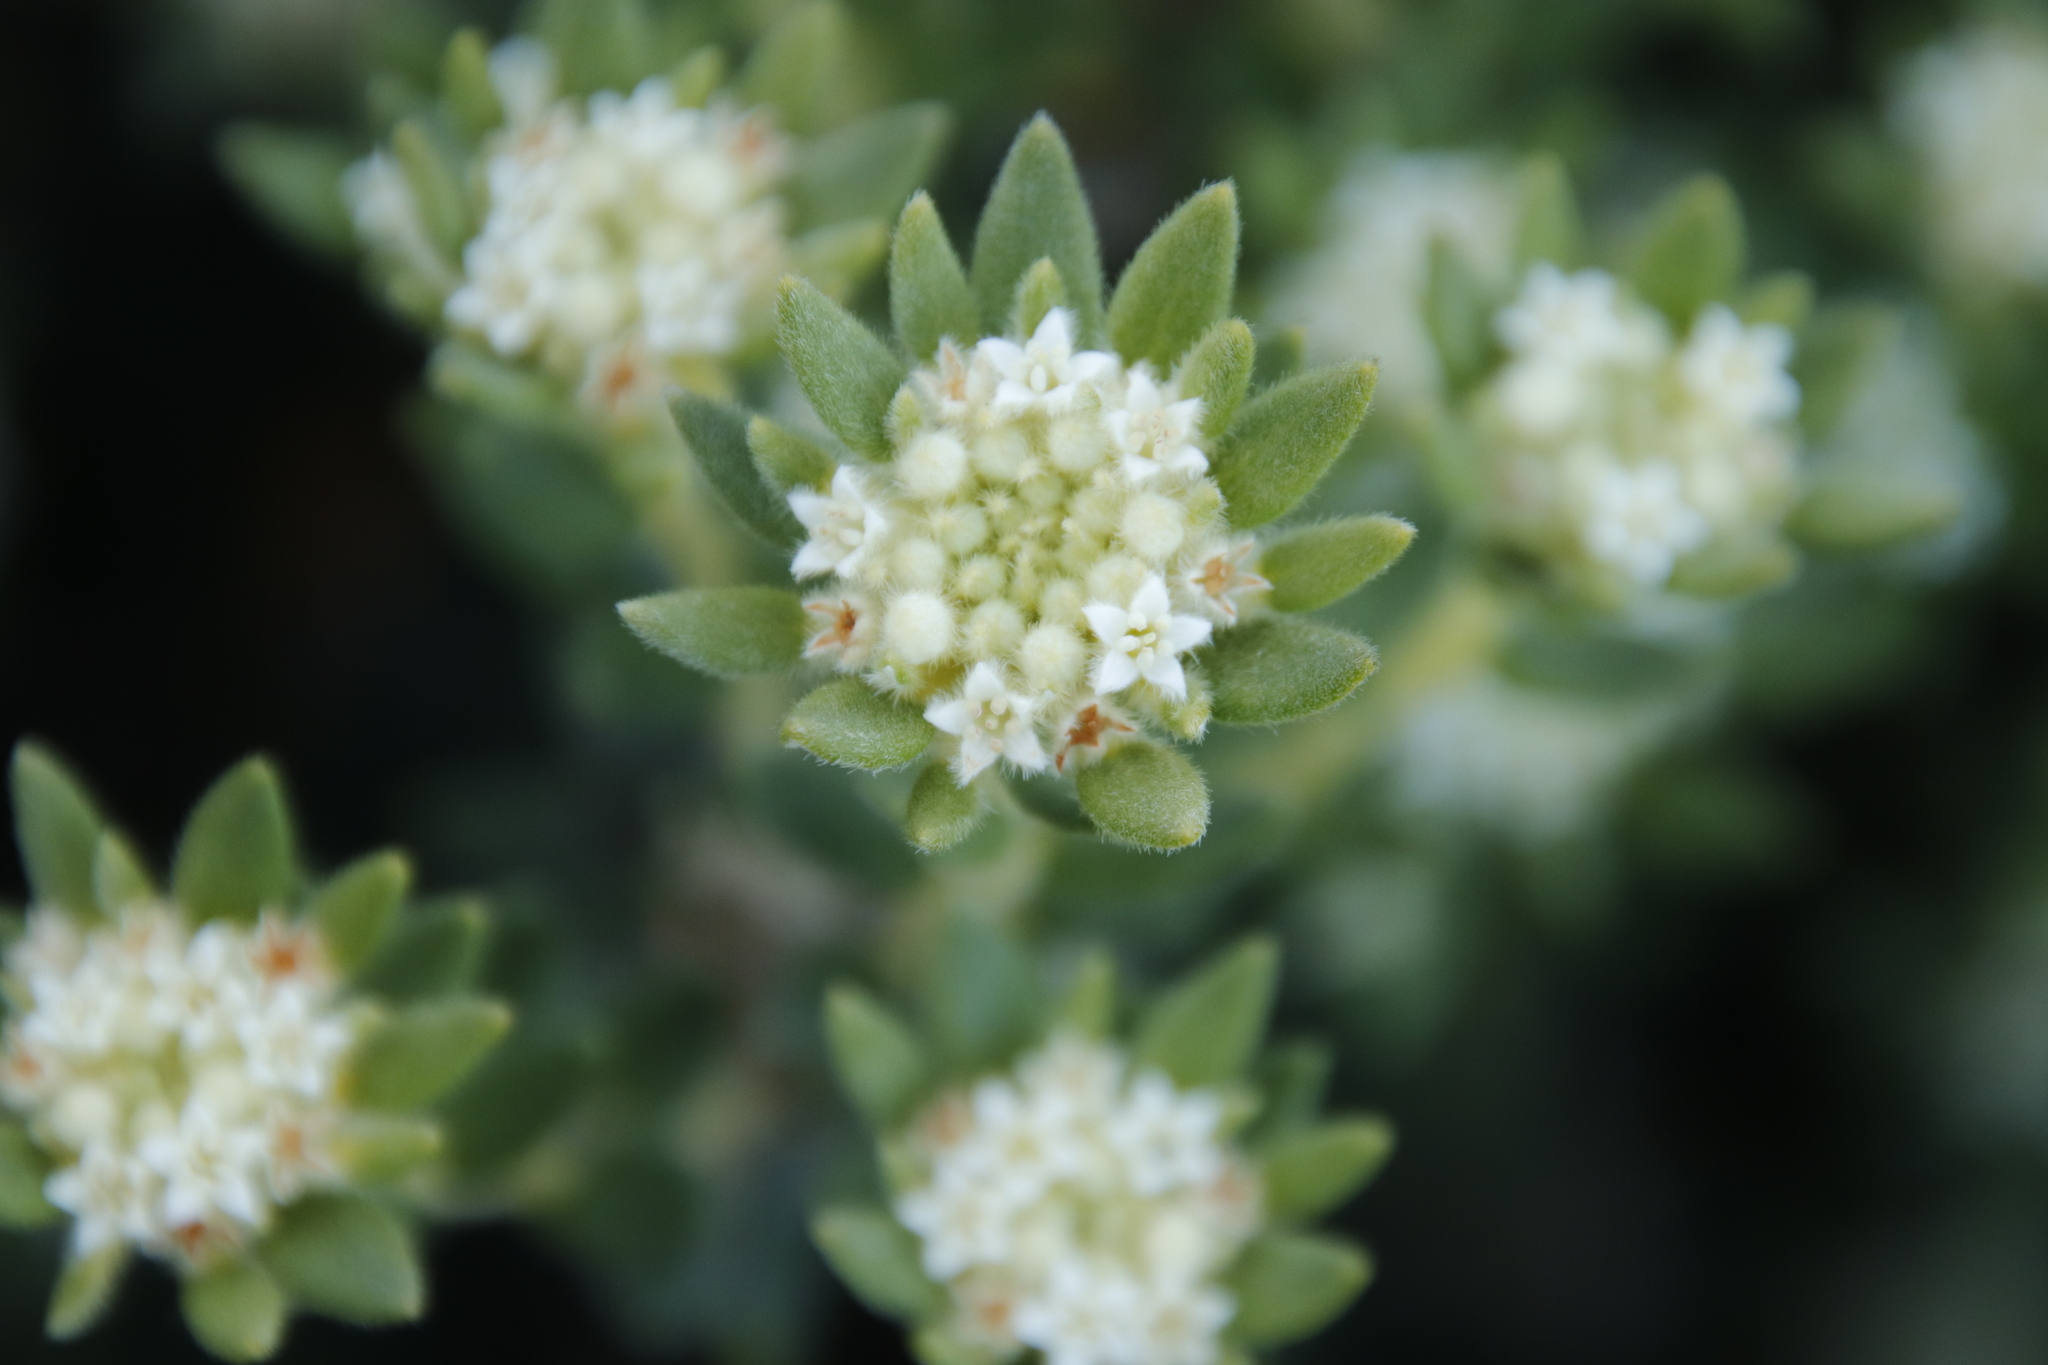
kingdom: Plantae
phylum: Tracheophyta
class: Magnoliopsida
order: Rosales
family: Rhamnaceae
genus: Phylica
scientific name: Phylica dioica
